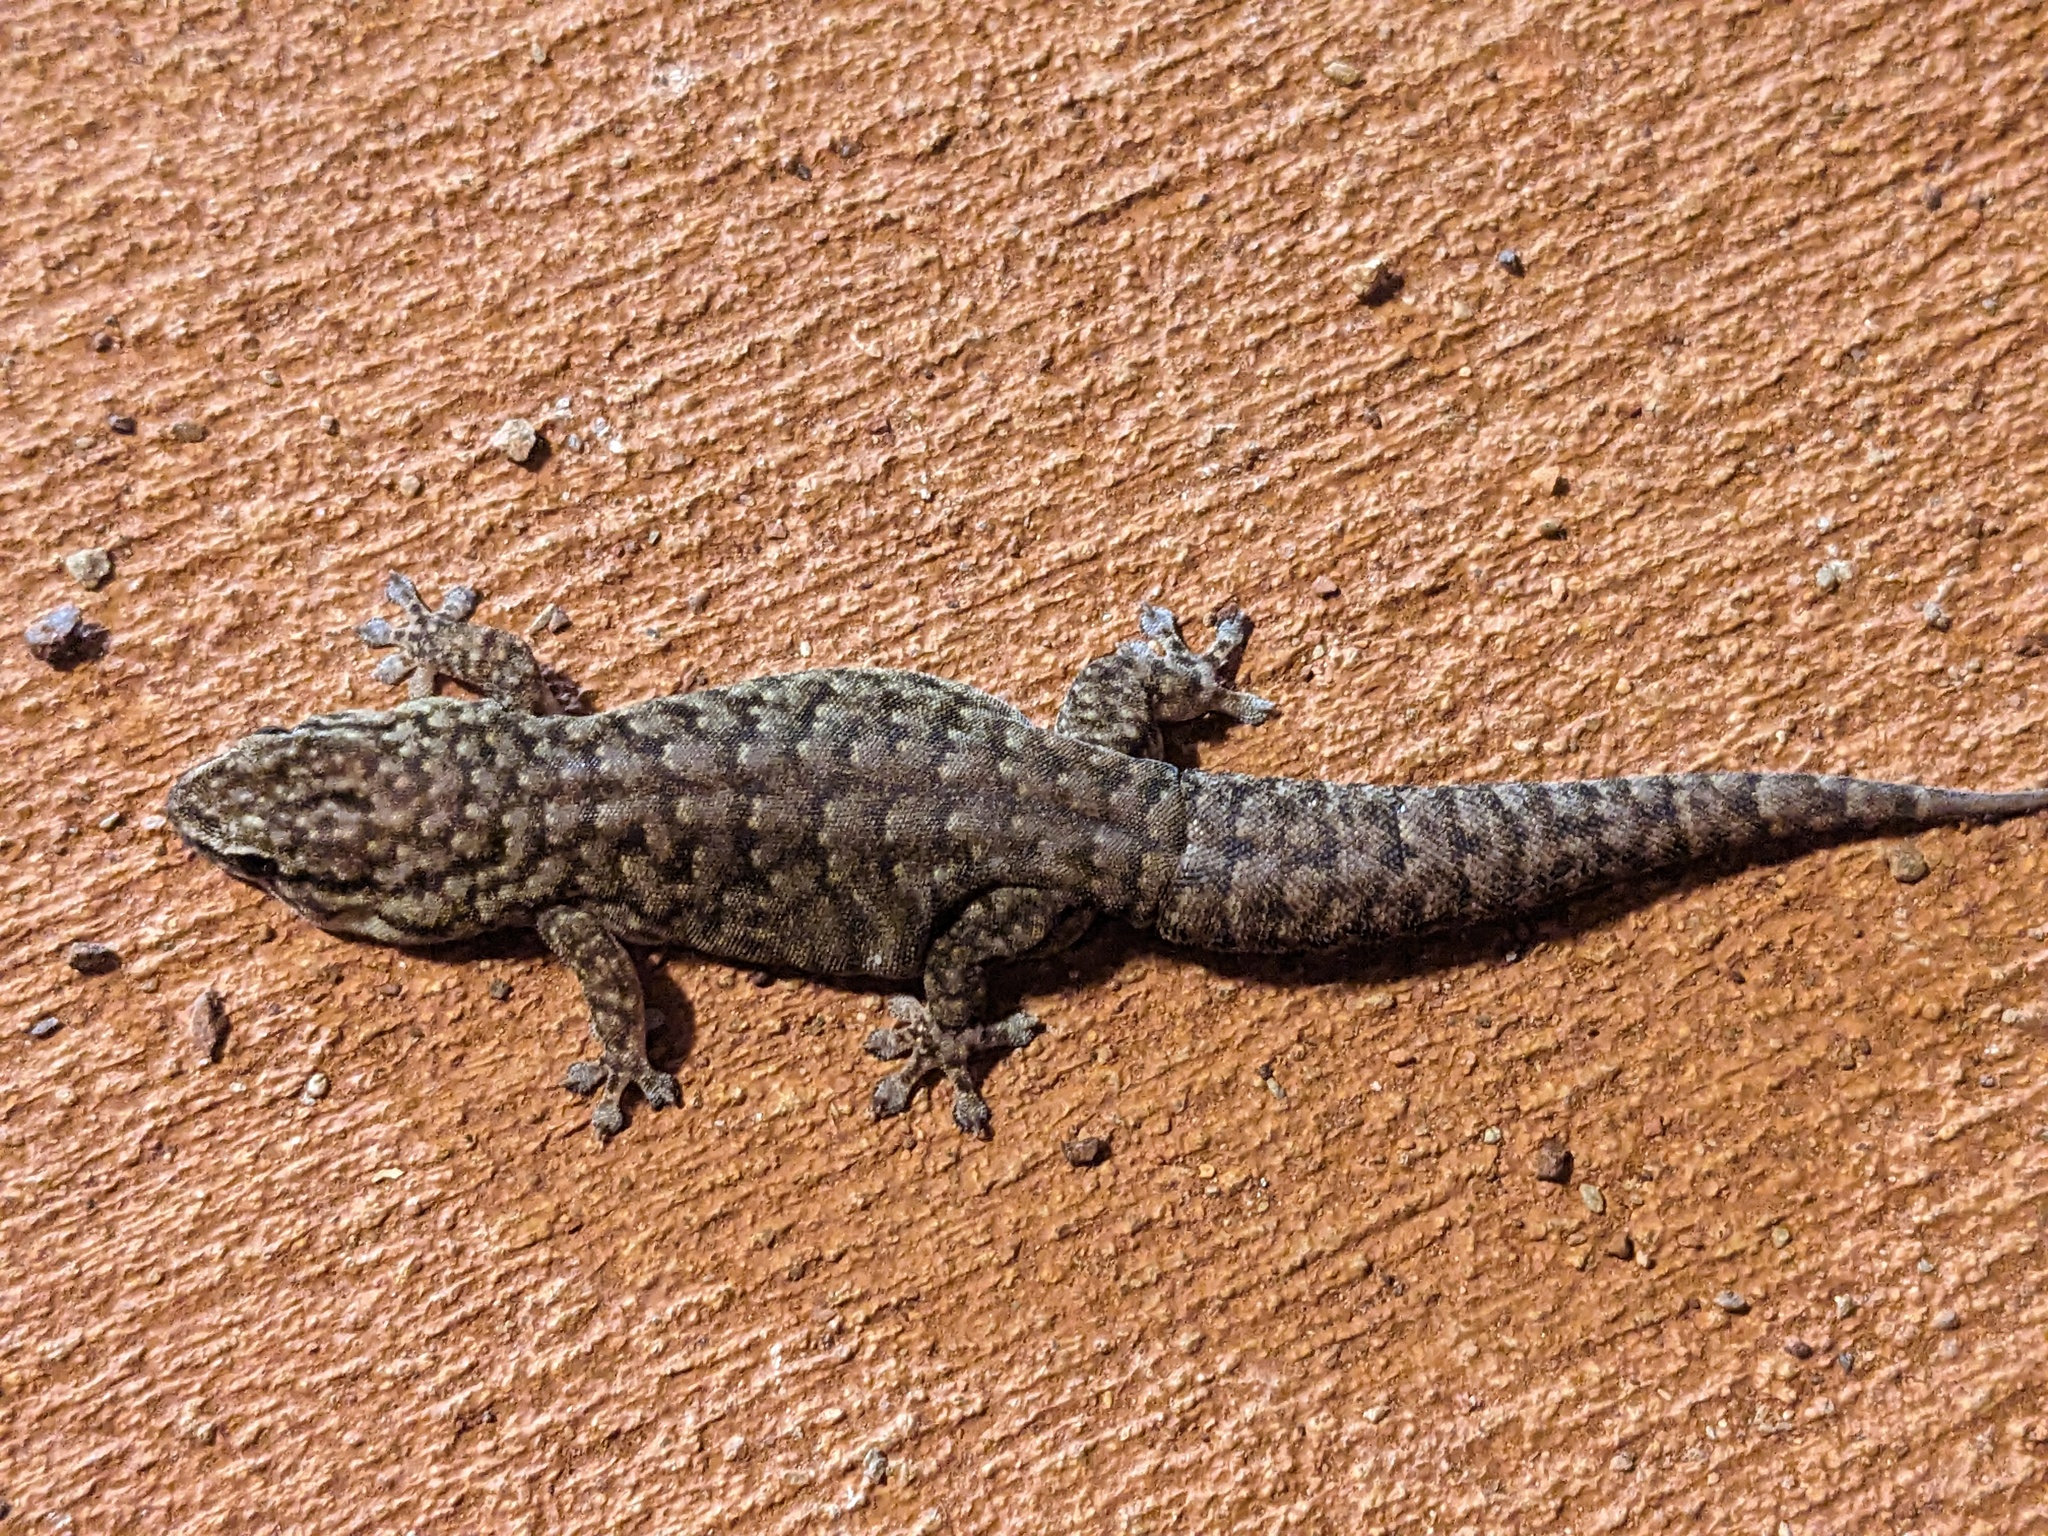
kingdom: Animalia
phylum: Chordata
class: Squamata
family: Gekkonidae
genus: Gehyra
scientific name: Gehyra variegata
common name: Tree dtella
